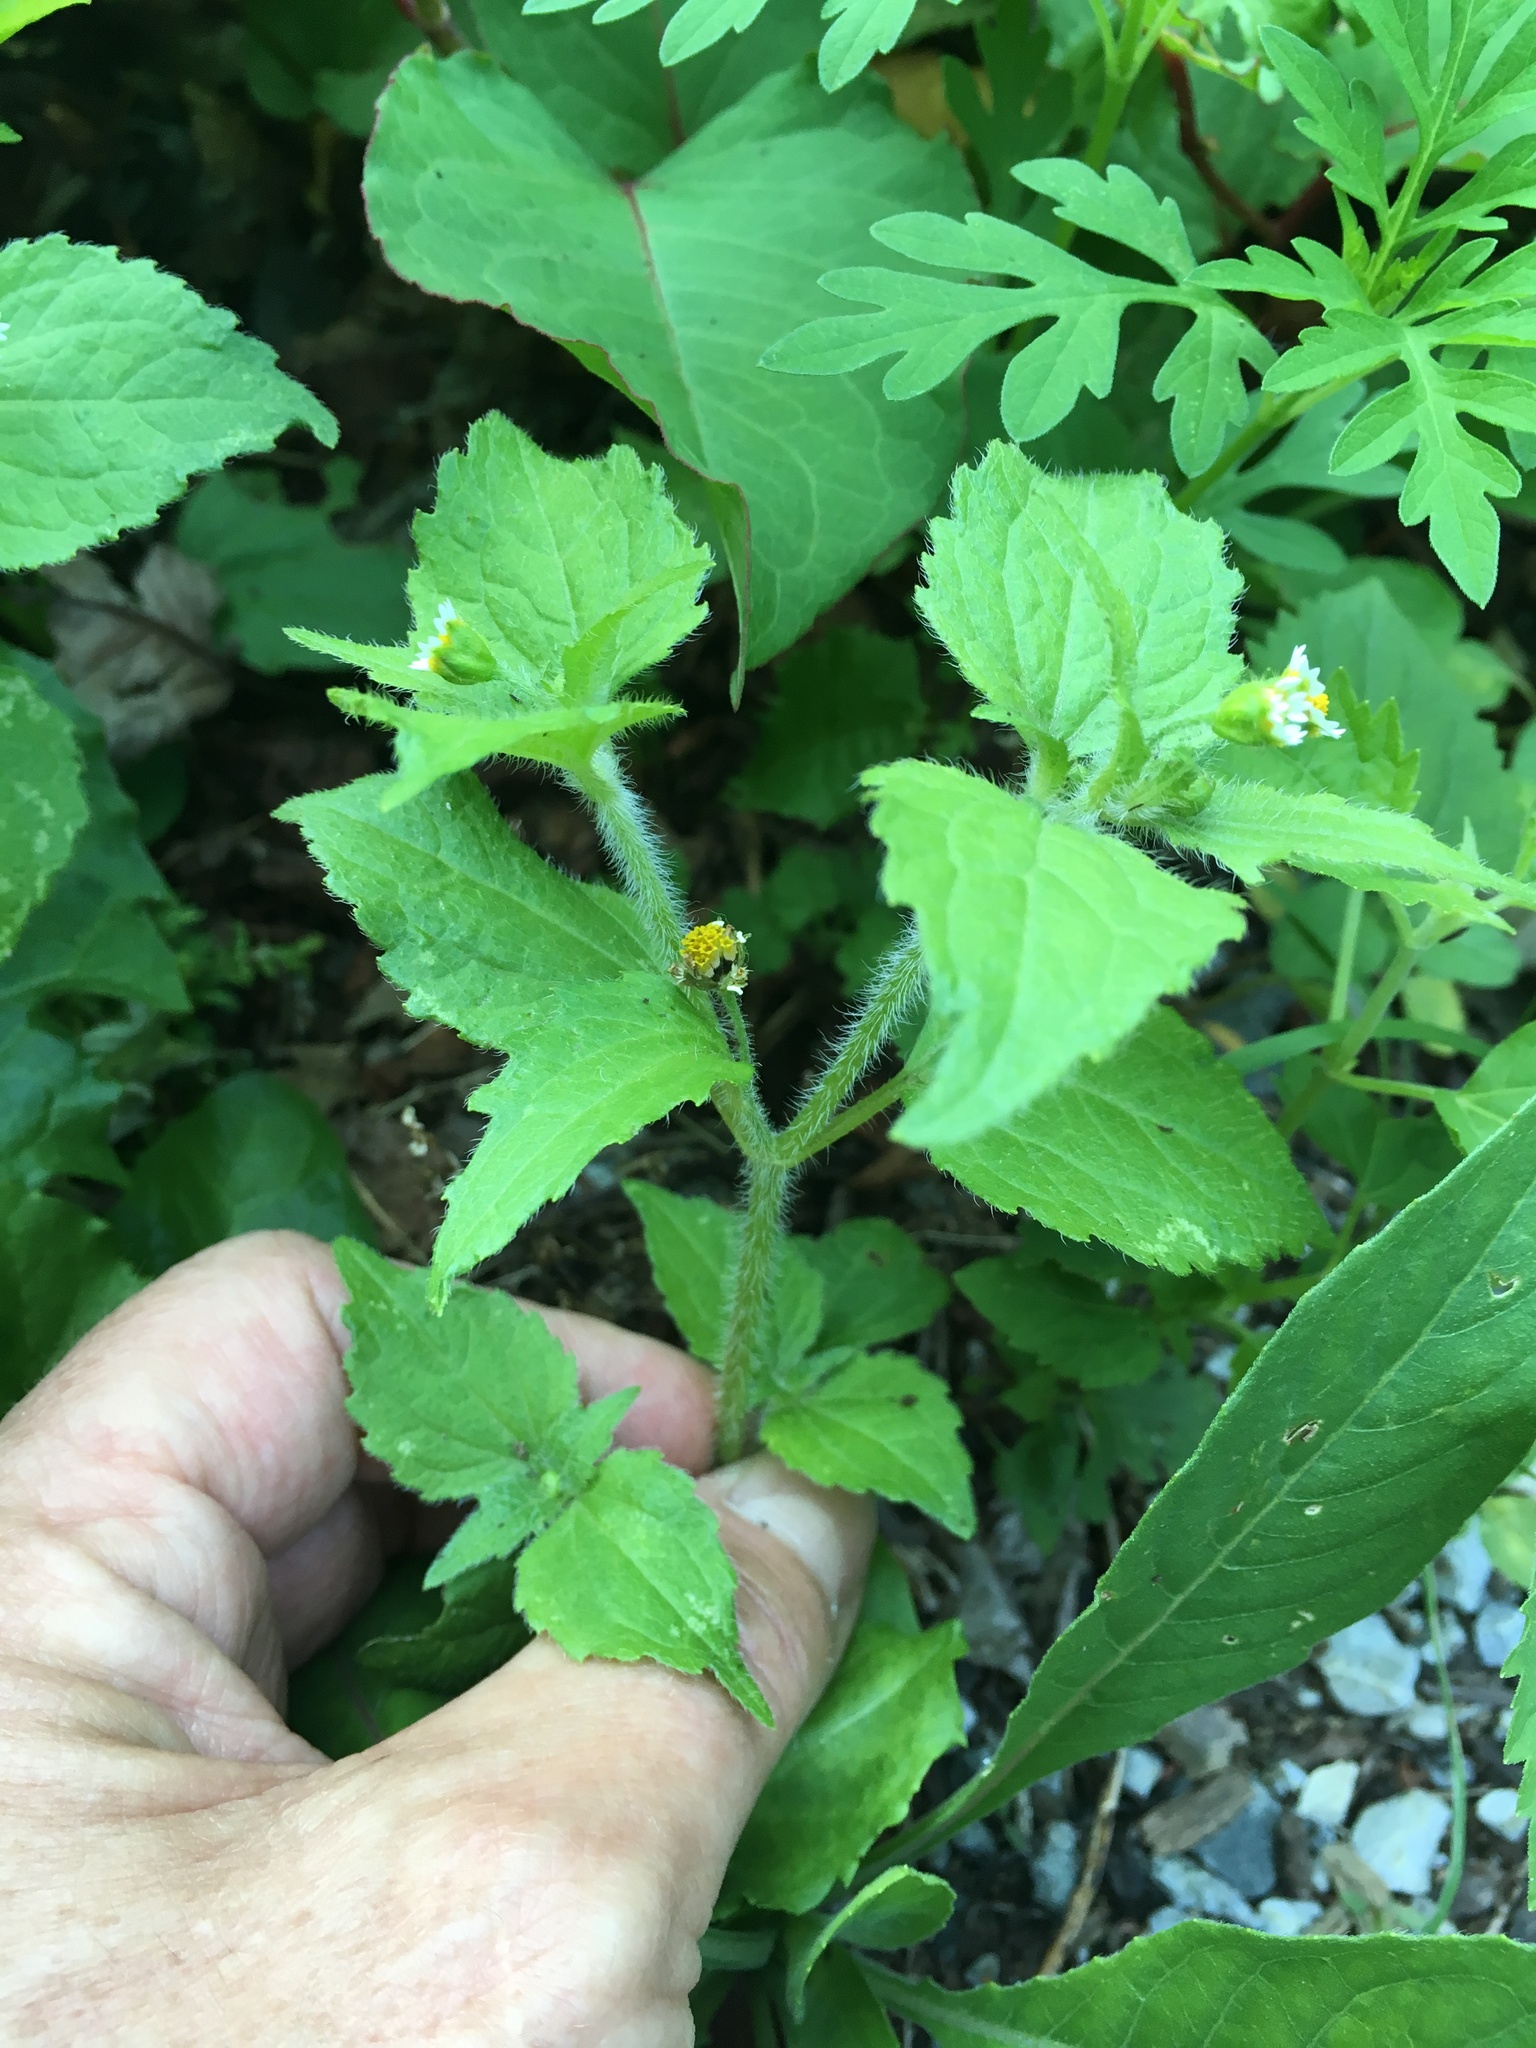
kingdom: Plantae
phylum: Tracheophyta
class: Magnoliopsida
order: Asterales
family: Asteraceae
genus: Galinsoga
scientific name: Galinsoga quadriradiata
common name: Shaggy soldier
